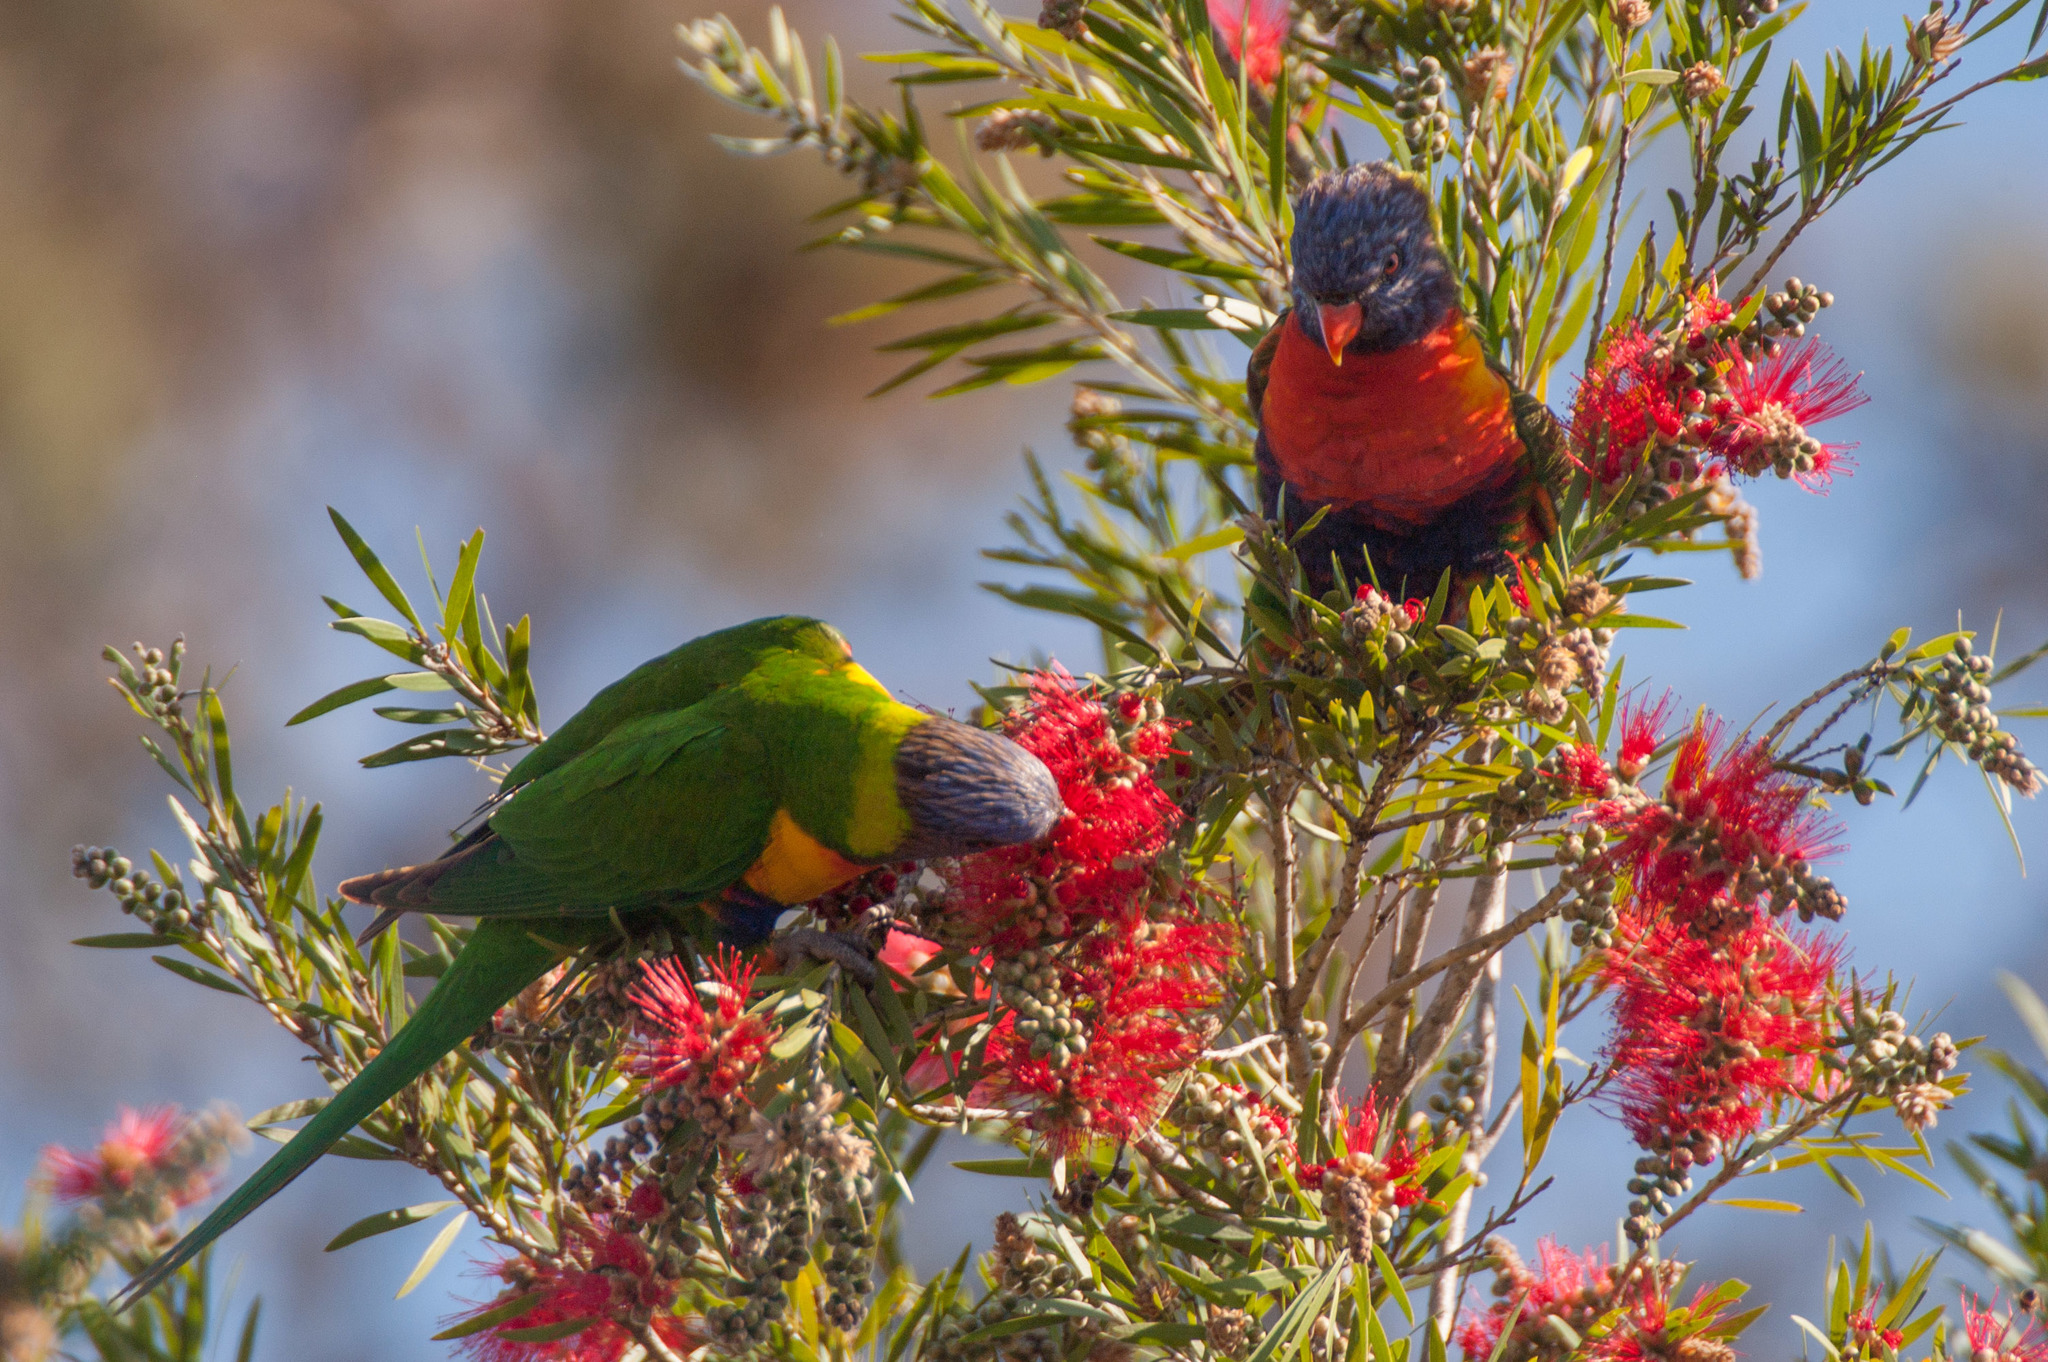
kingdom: Animalia
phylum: Chordata
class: Aves
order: Psittaciformes
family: Psittacidae
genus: Trichoglossus
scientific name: Trichoglossus haematodus
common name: Coconut lorikeet
